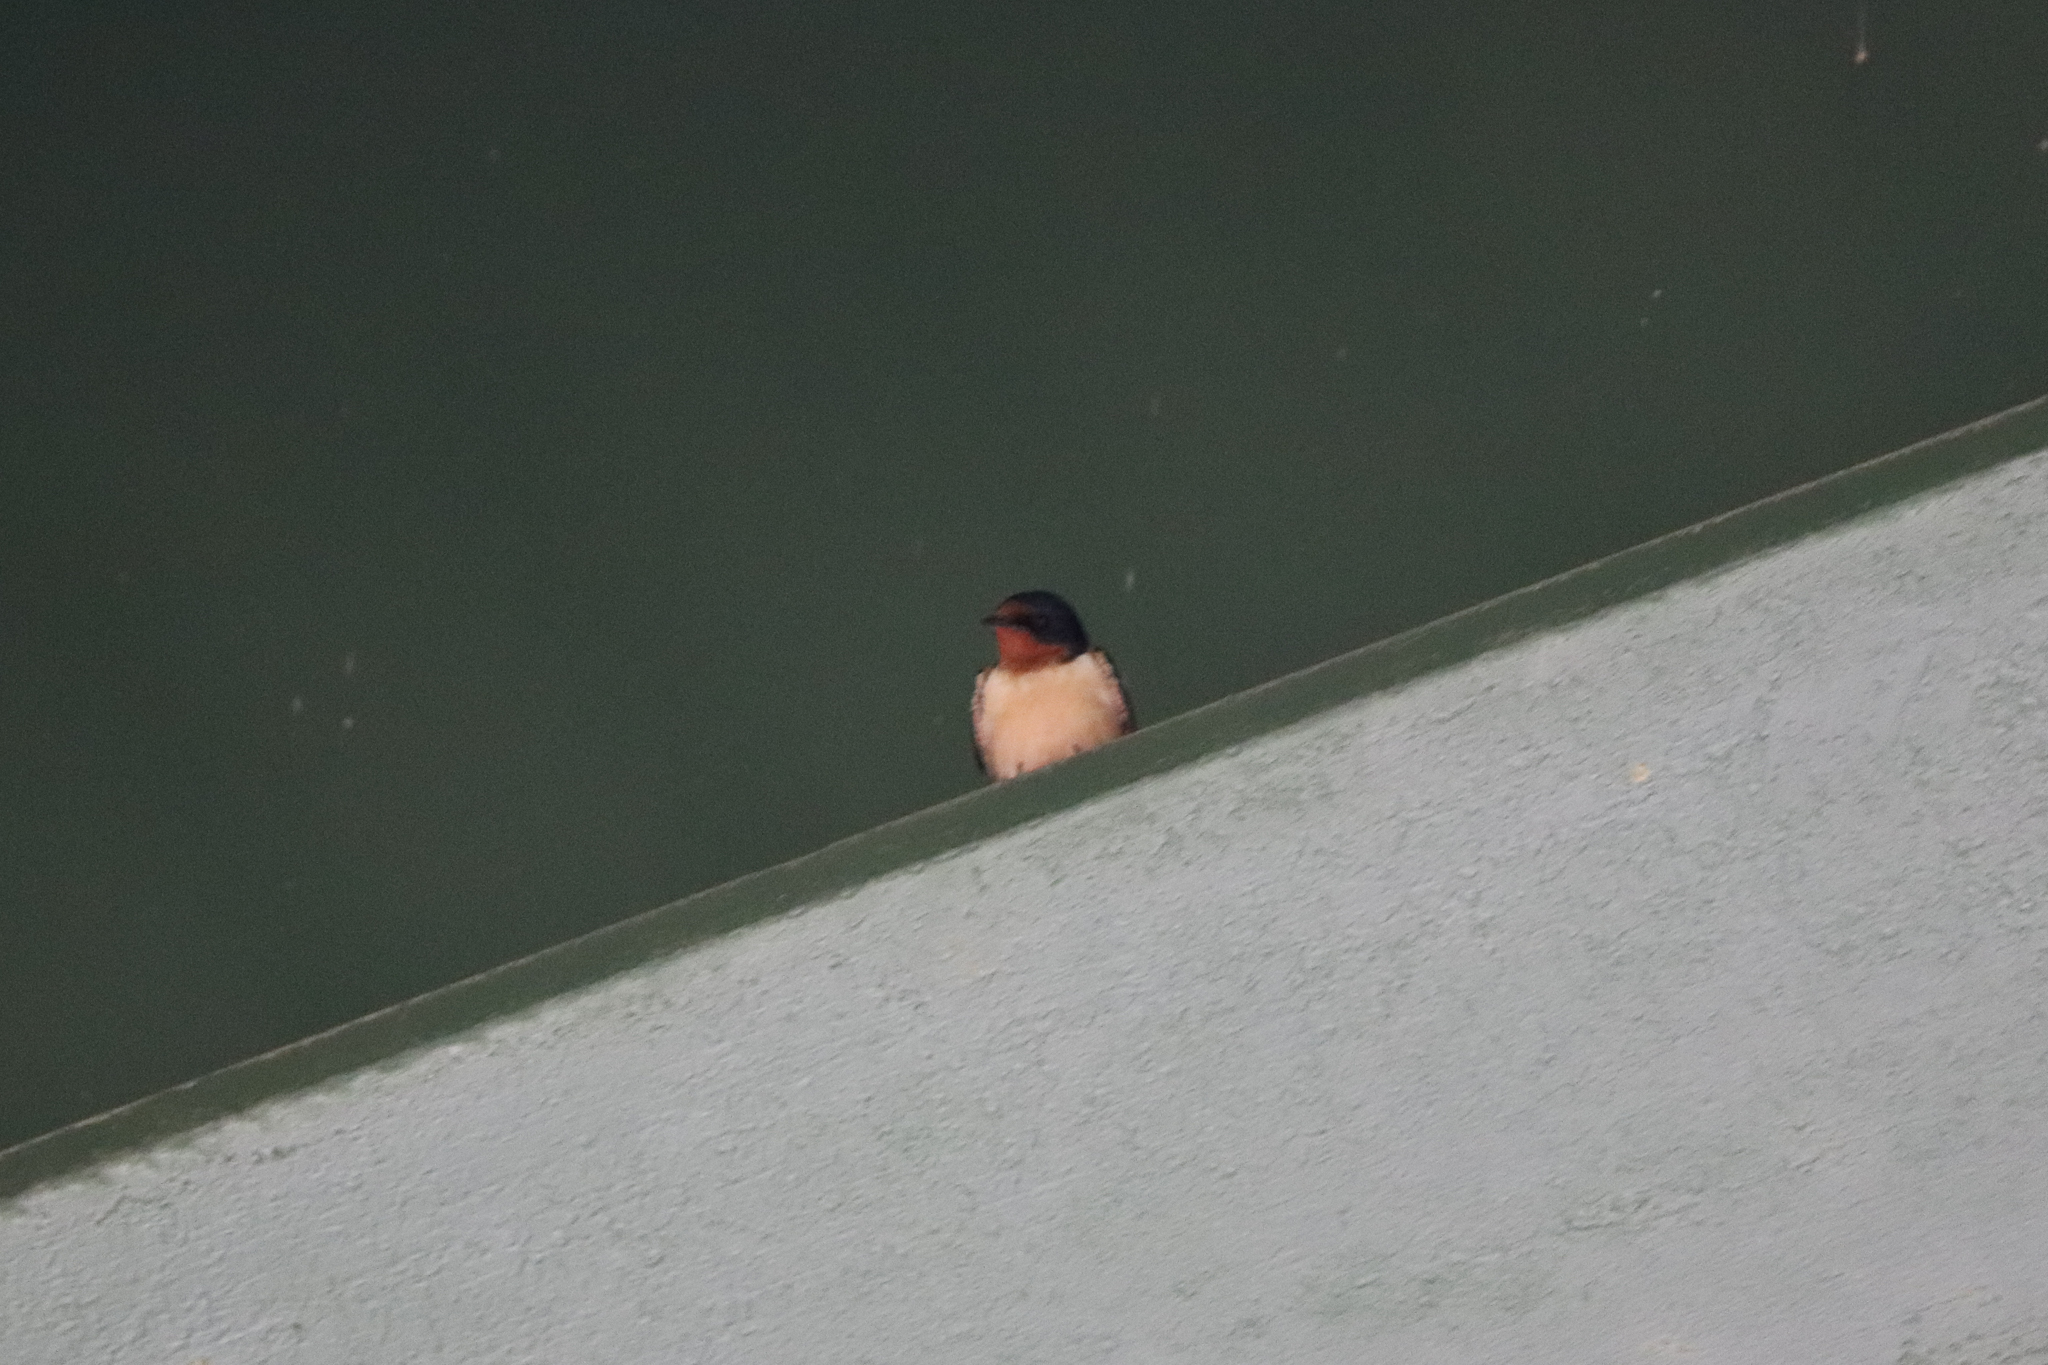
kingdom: Animalia
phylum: Chordata
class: Aves
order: Passeriformes
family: Hirundinidae
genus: Hirundo
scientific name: Hirundo rustica
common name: Barn swallow
